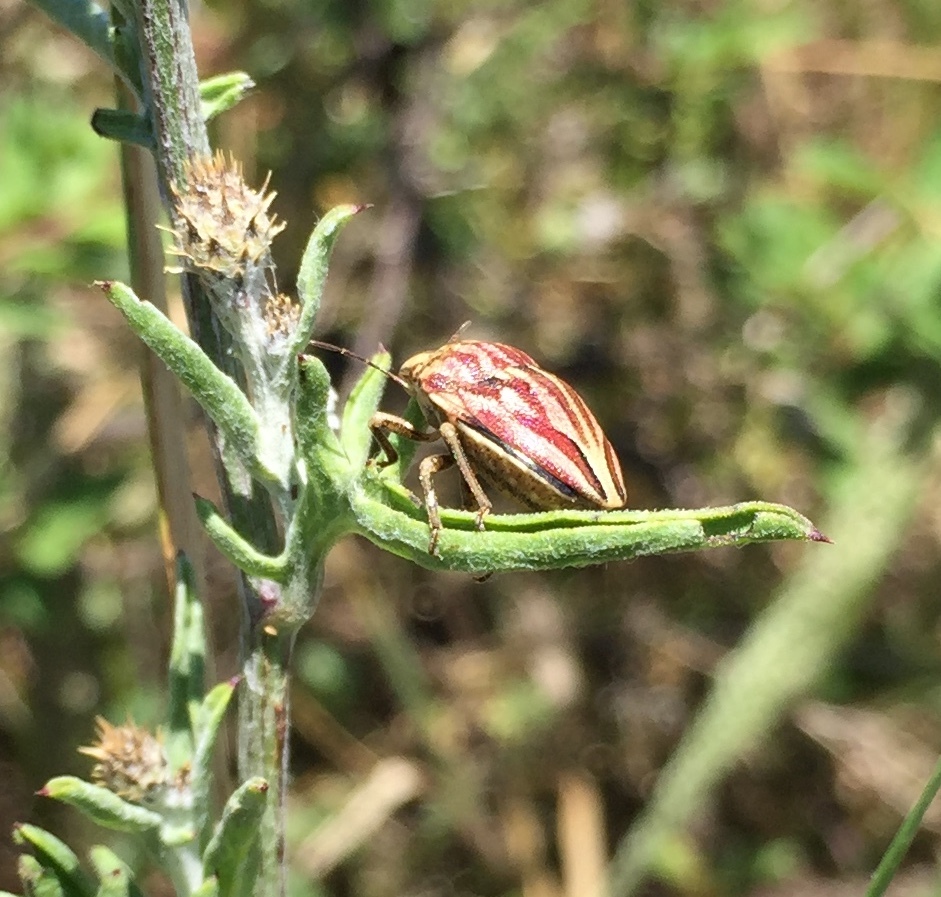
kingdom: Animalia
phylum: Arthropoda
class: Insecta
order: Hemiptera
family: Scutelleridae
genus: Odontotarsus
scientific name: Odontotarsus purpureolineatus
